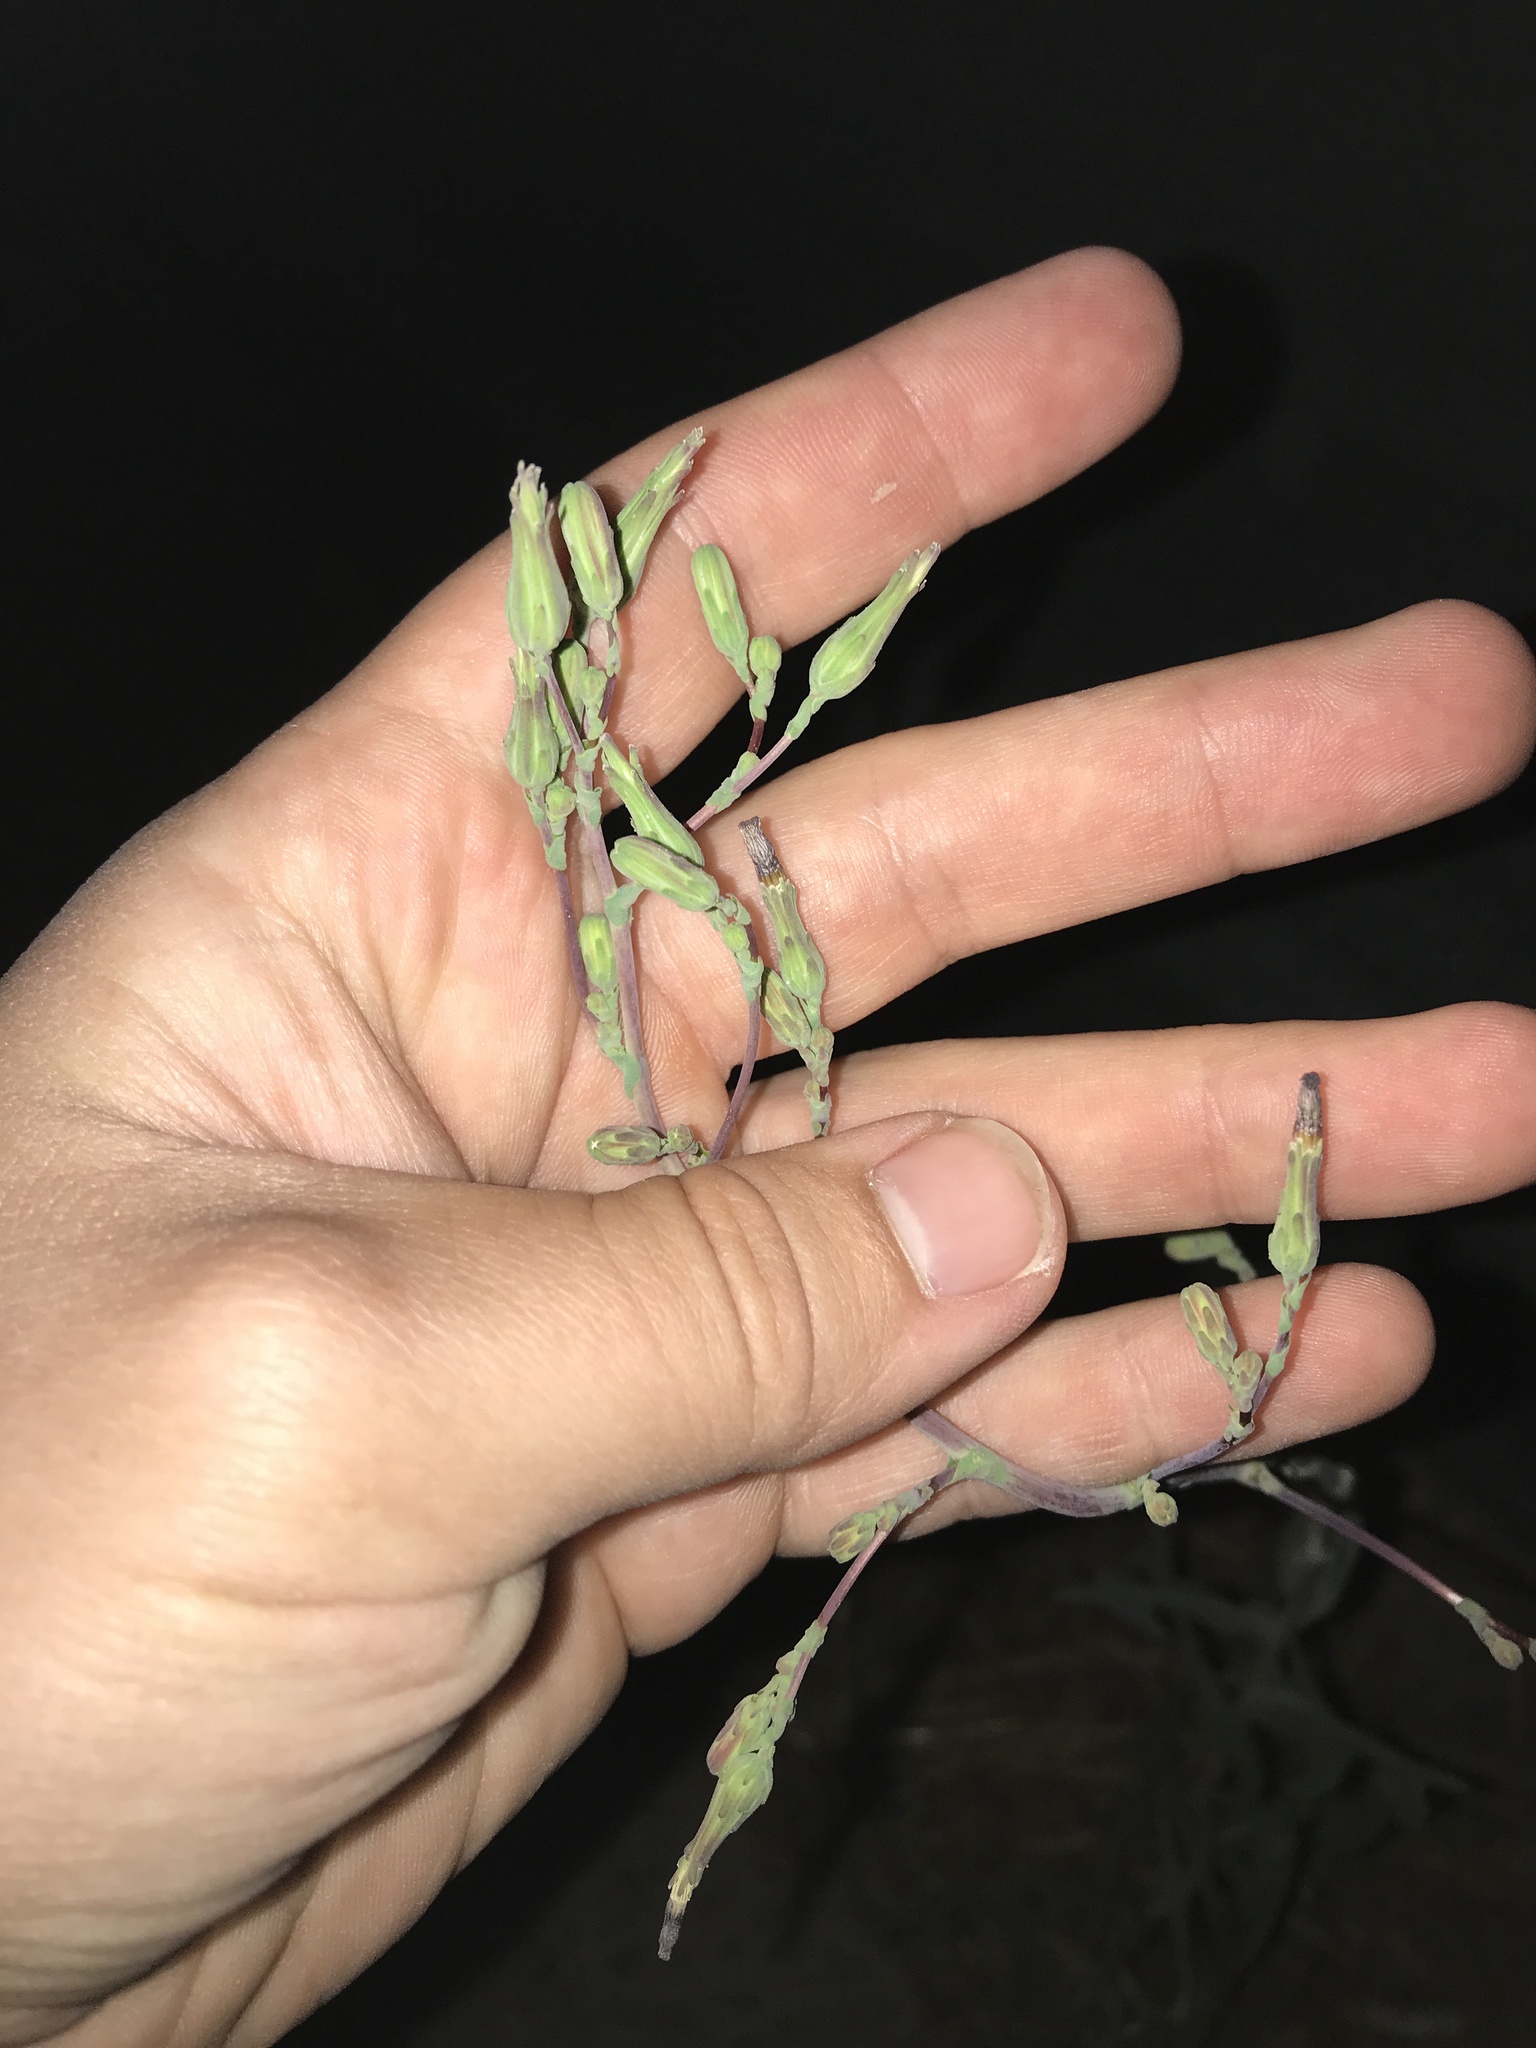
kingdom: Plantae
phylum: Tracheophyta
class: Magnoliopsida
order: Asterales
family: Asteraceae
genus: Lactuca
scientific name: Lactuca serriola
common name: Prickly lettuce
